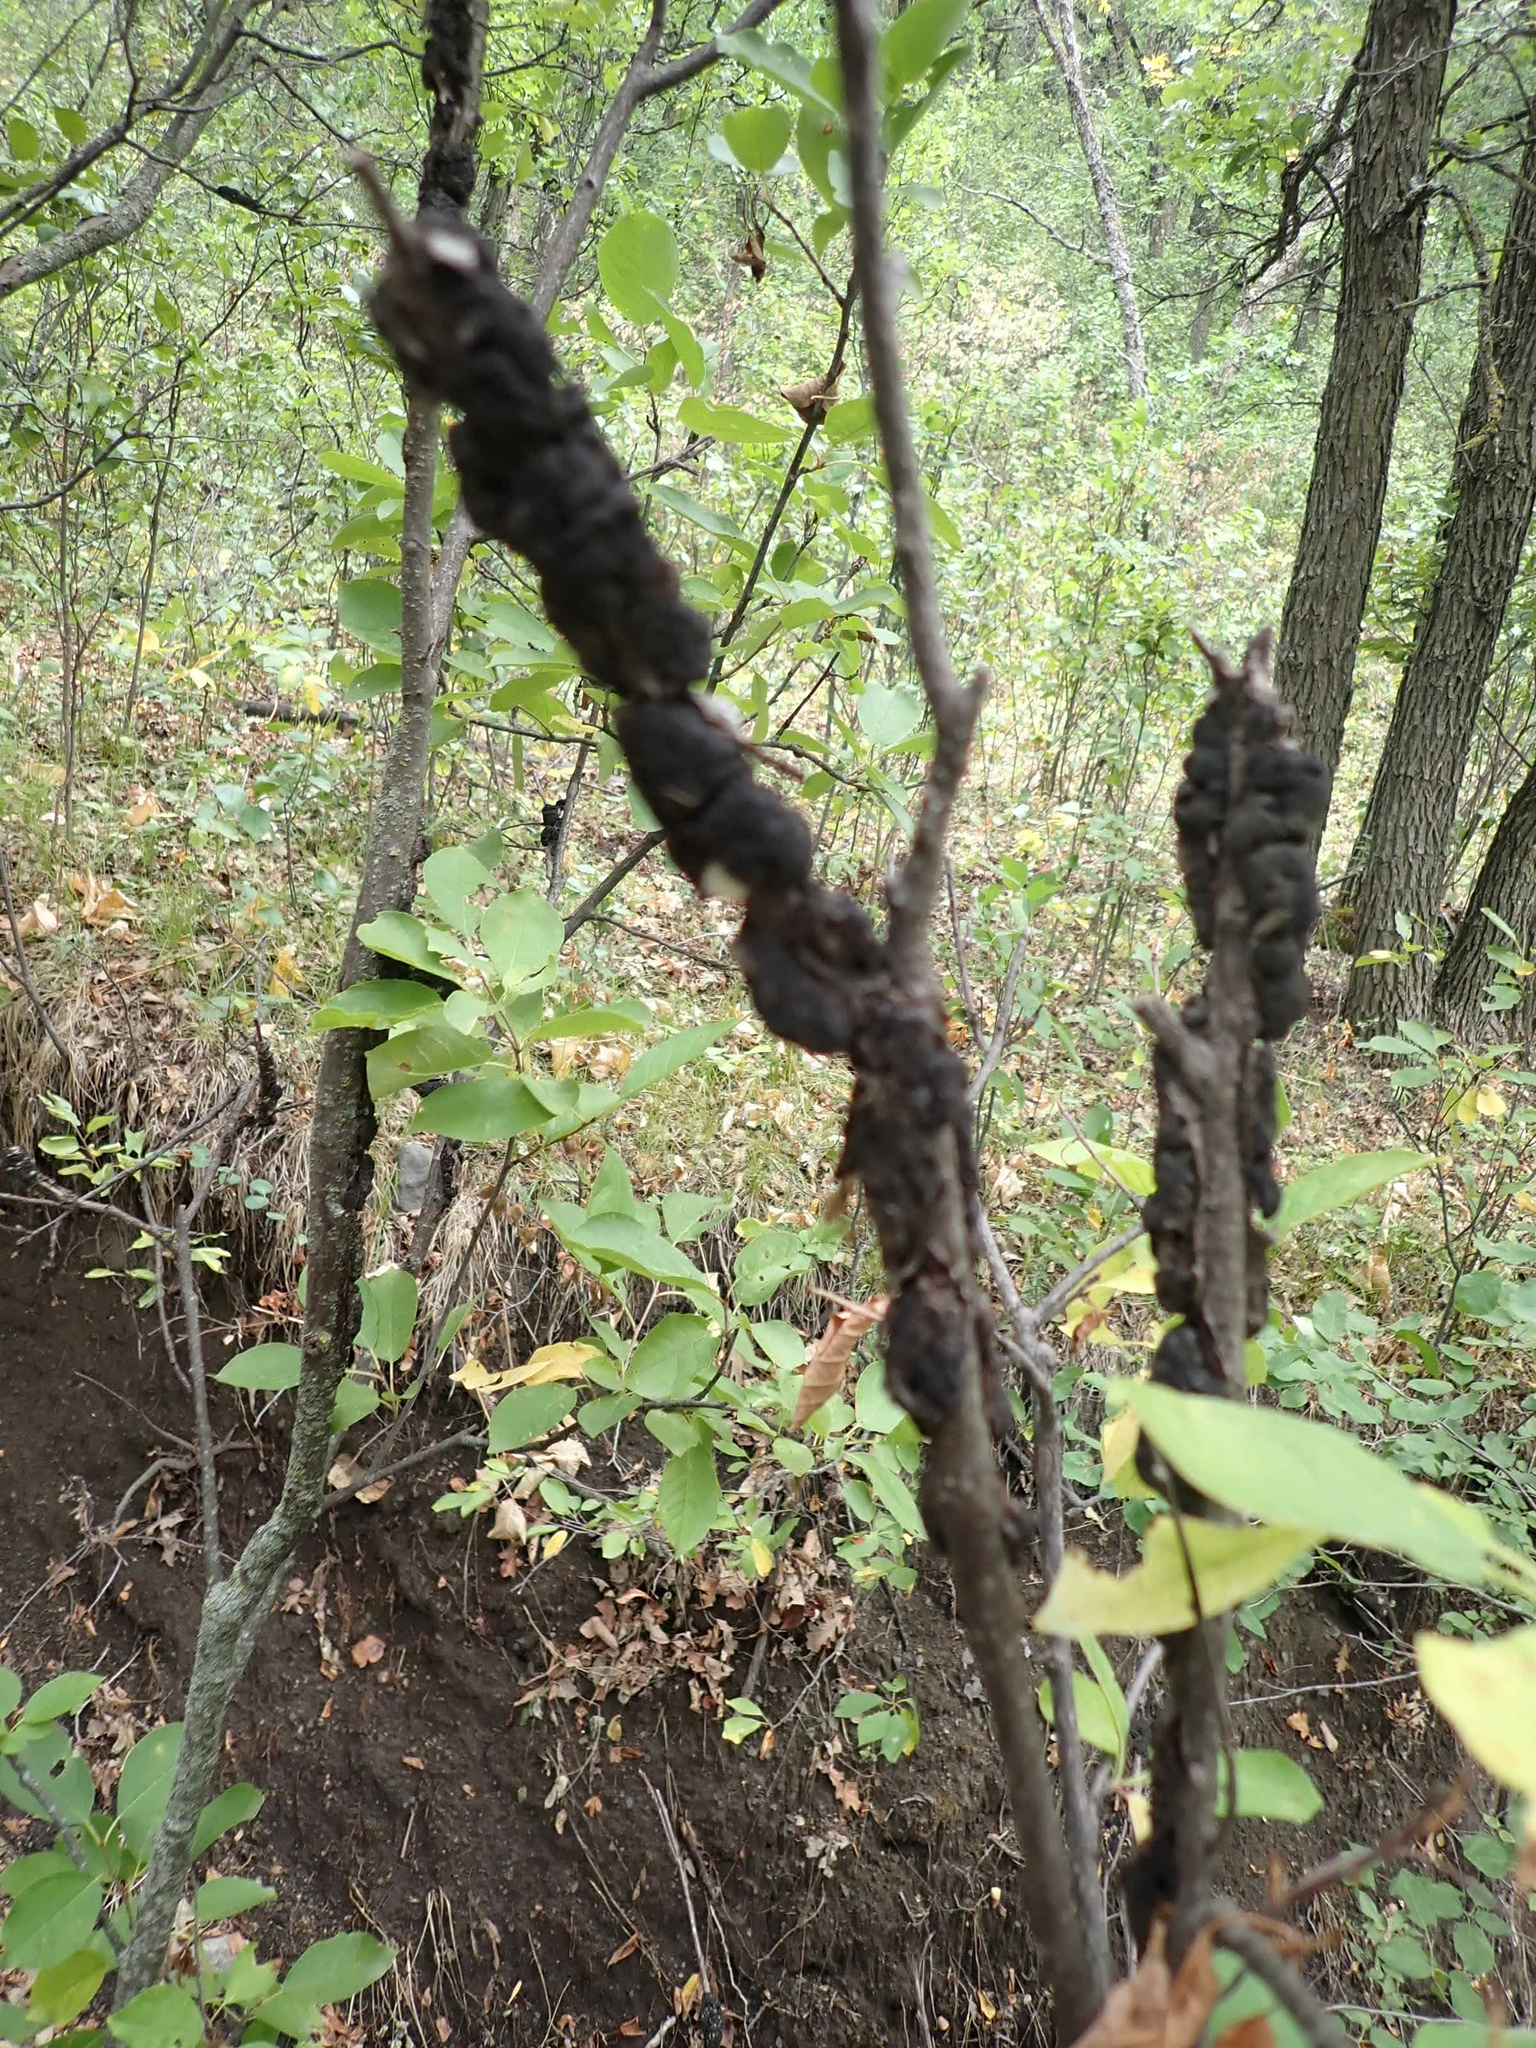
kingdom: Fungi
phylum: Ascomycota
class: Dothideomycetes
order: Venturiales
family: Venturiaceae
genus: Apiosporina
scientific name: Apiosporina morbosa
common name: Black knot
